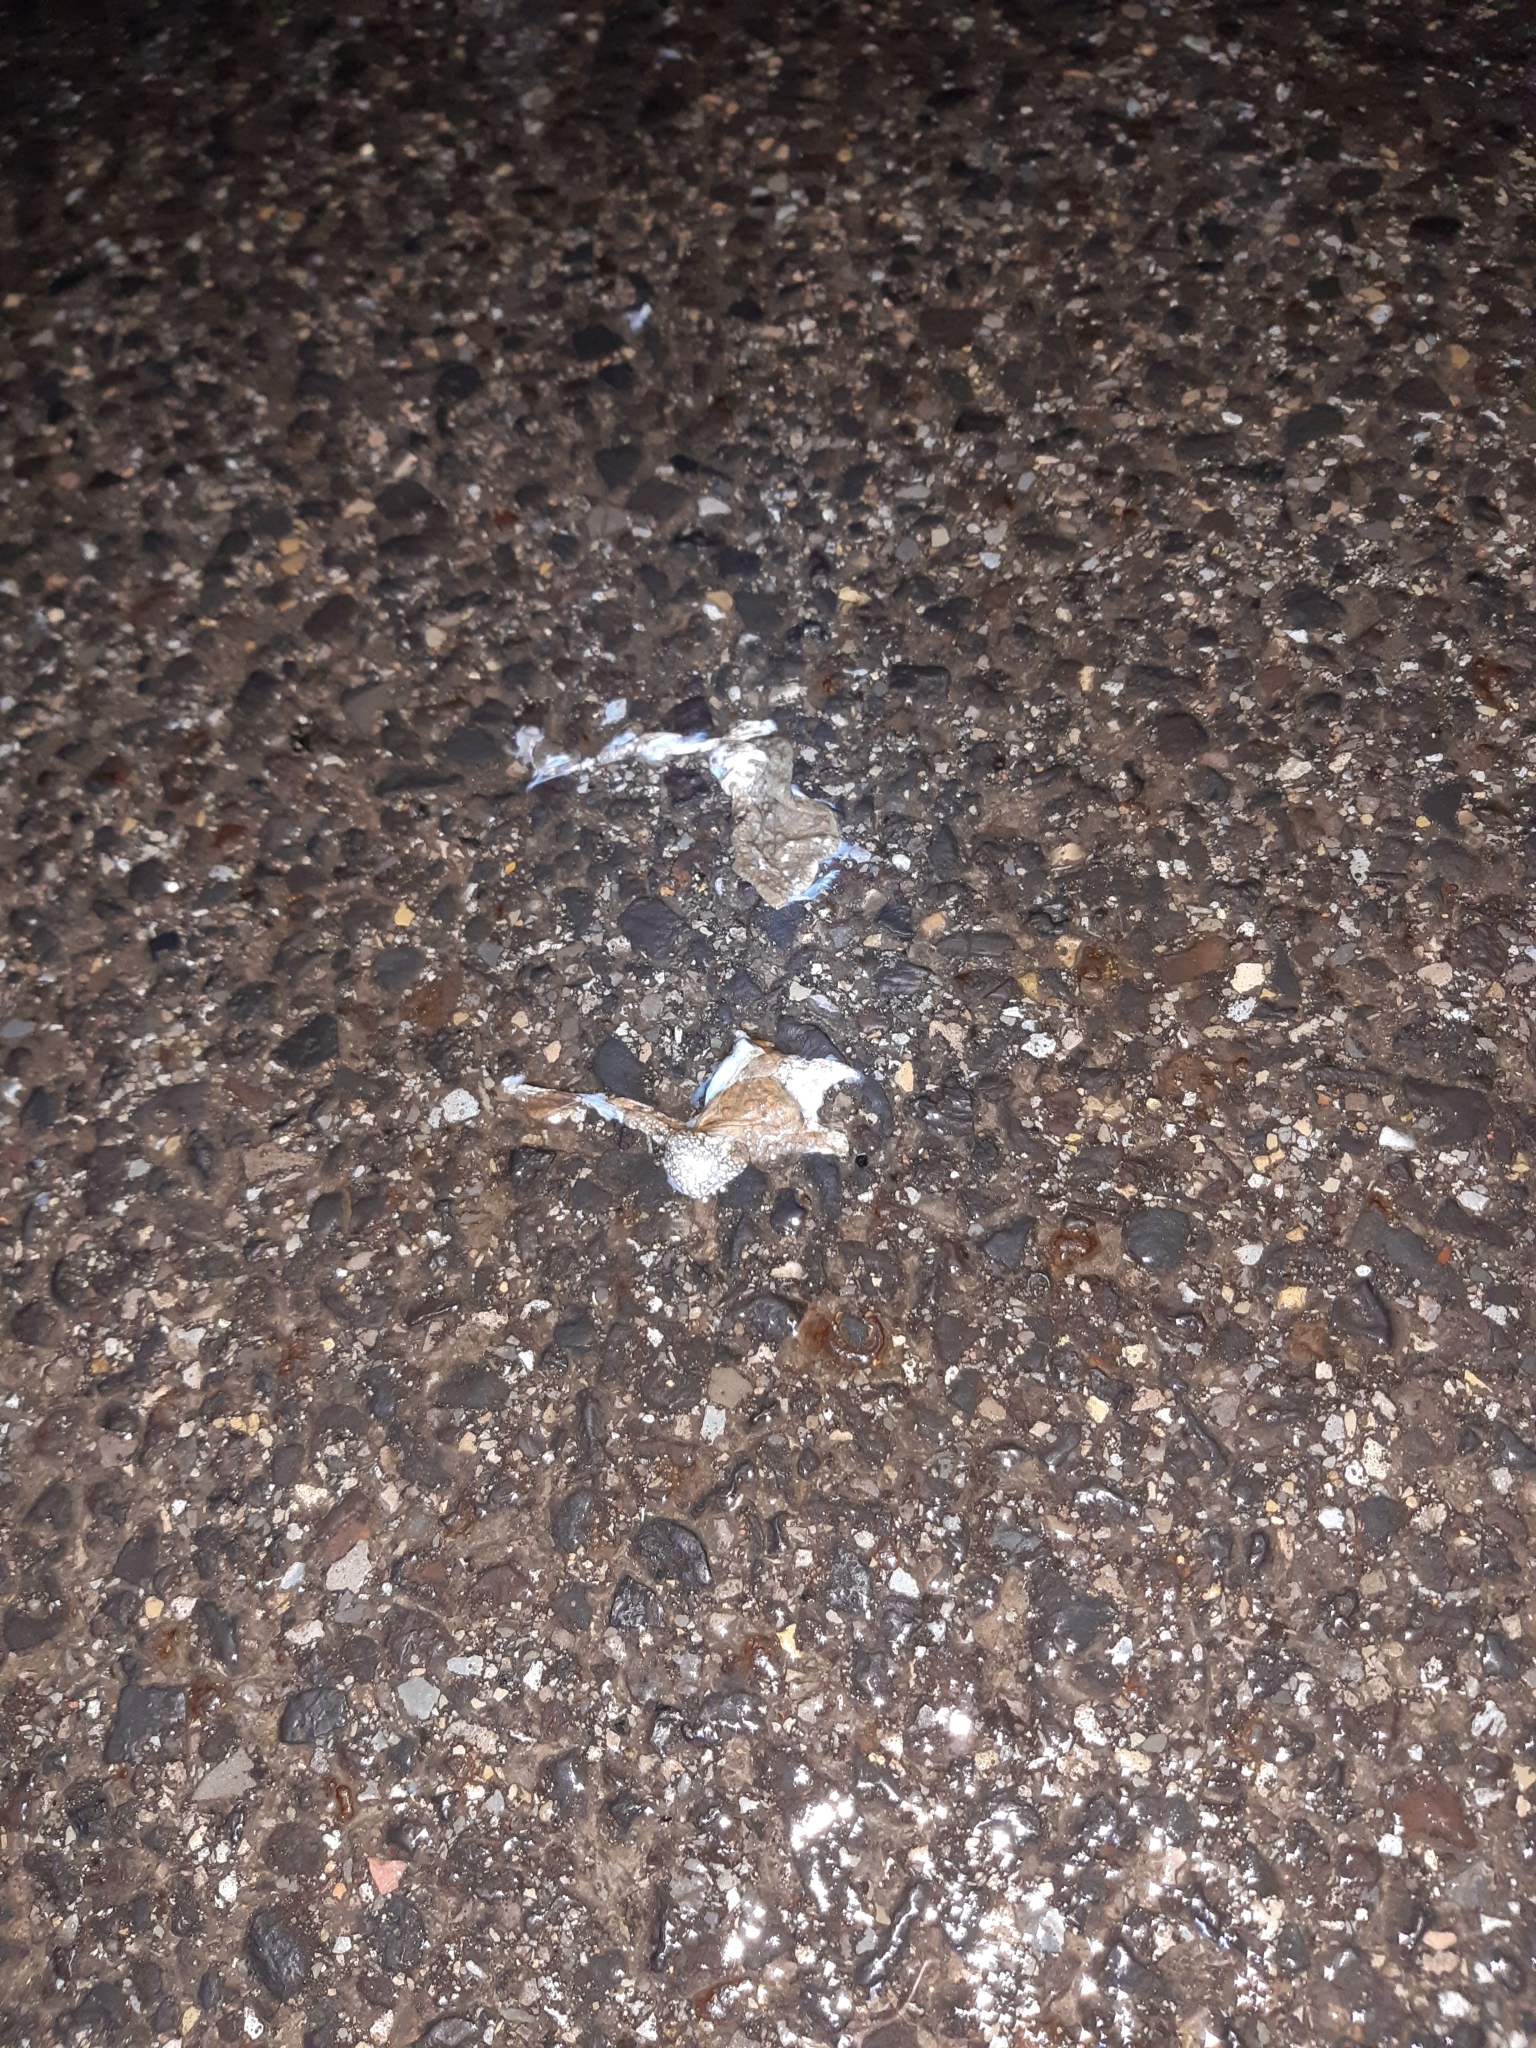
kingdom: Animalia
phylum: Chordata
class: Amphibia
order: Anura
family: Bufonidae
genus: Bufo
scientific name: Bufo bufo
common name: Common toad
